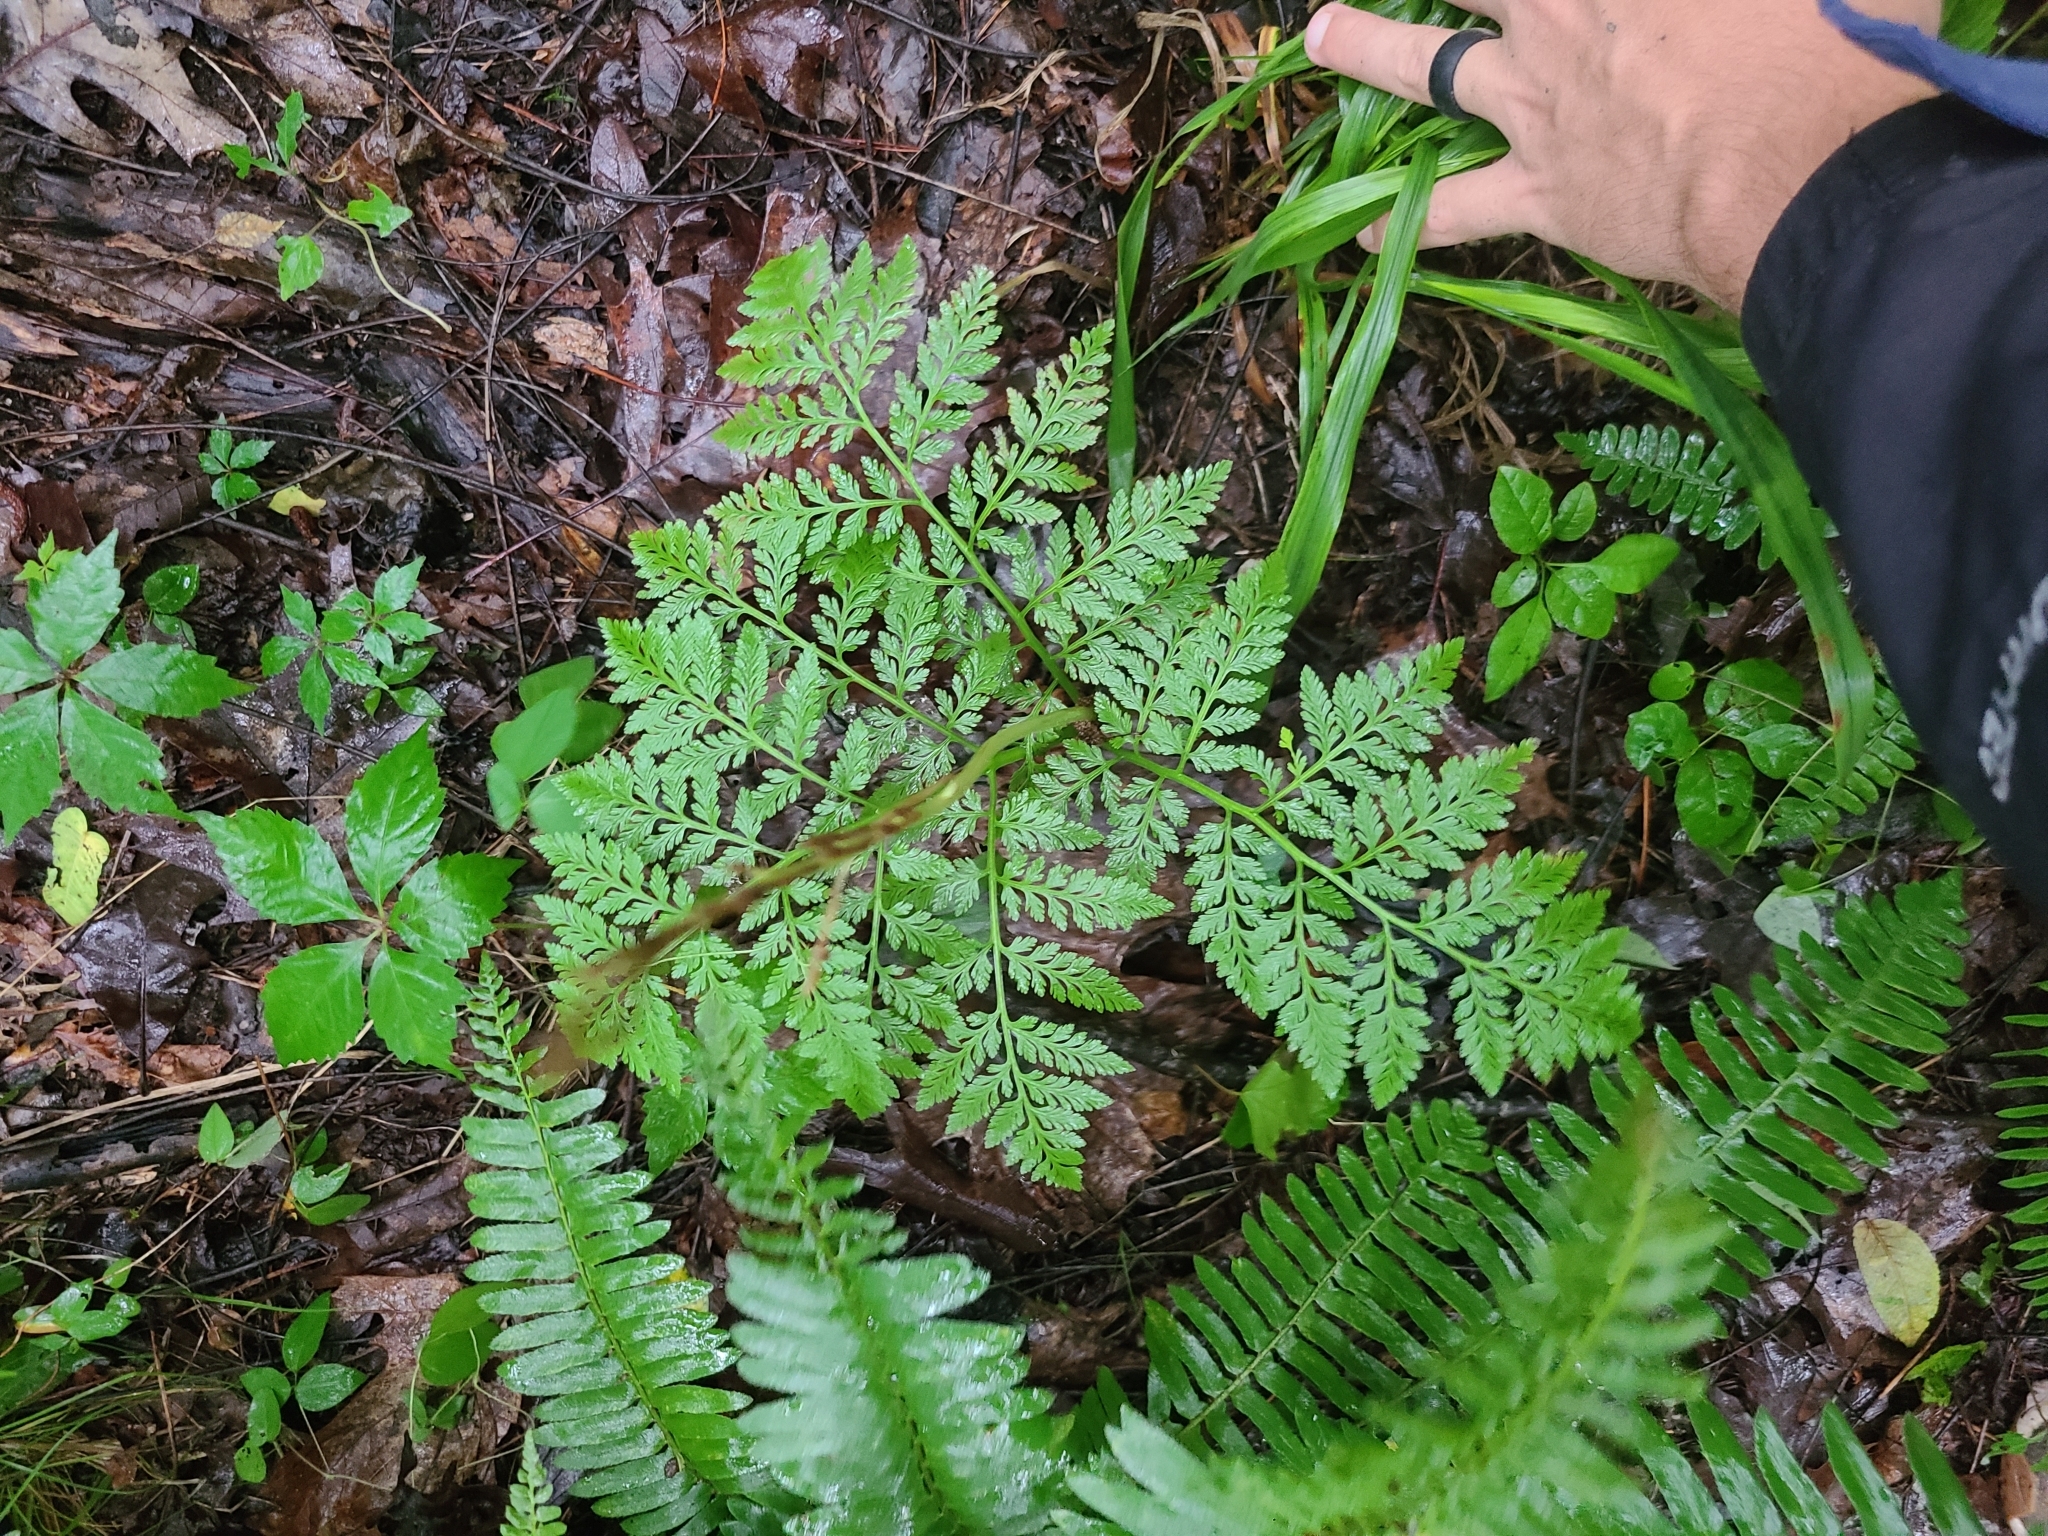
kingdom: Plantae
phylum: Tracheophyta
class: Polypodiopsida
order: Ophioglossales
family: Ophioglossaceae
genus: Botrypus
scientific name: Botrypus virginianus
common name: Common grapefern
